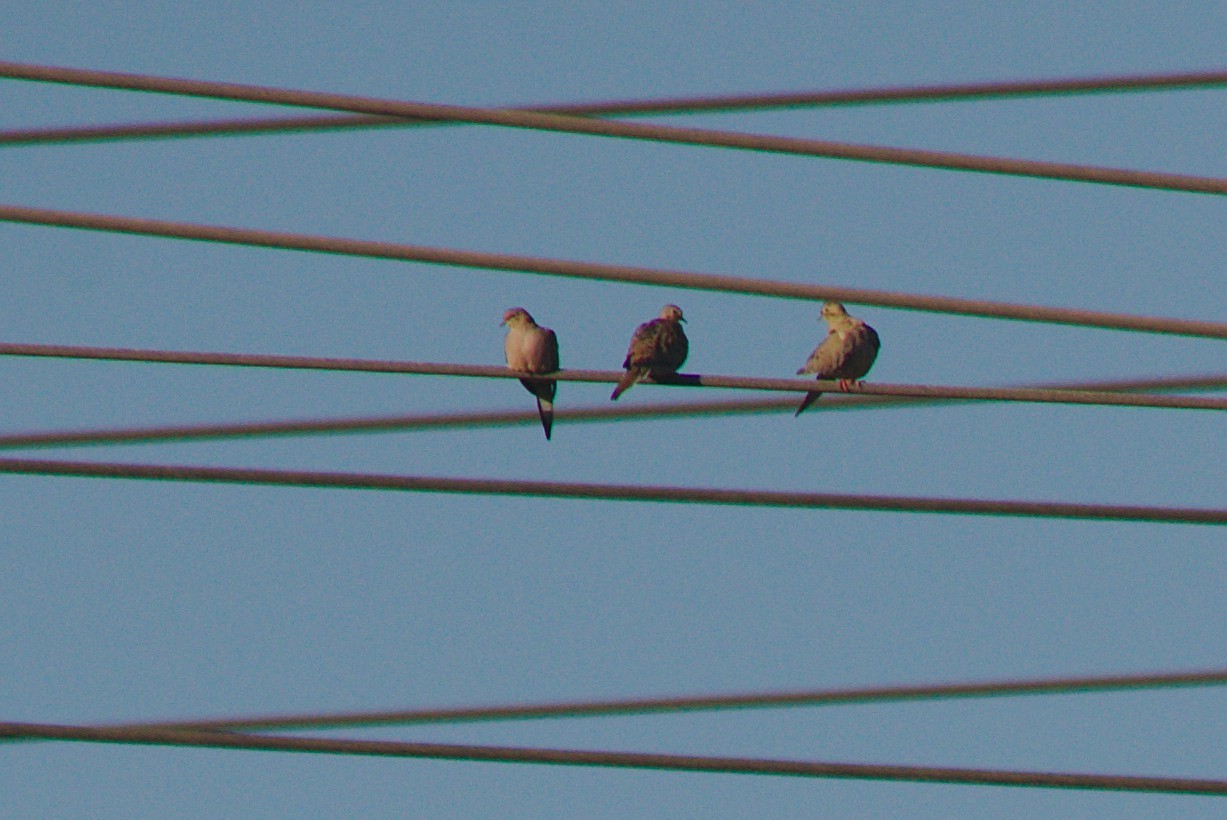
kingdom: Animalia
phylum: Chordata
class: Aves
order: Columbiformes
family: Columbidae
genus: Zenaida
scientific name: Zenaida macroura
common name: Mourning dove
